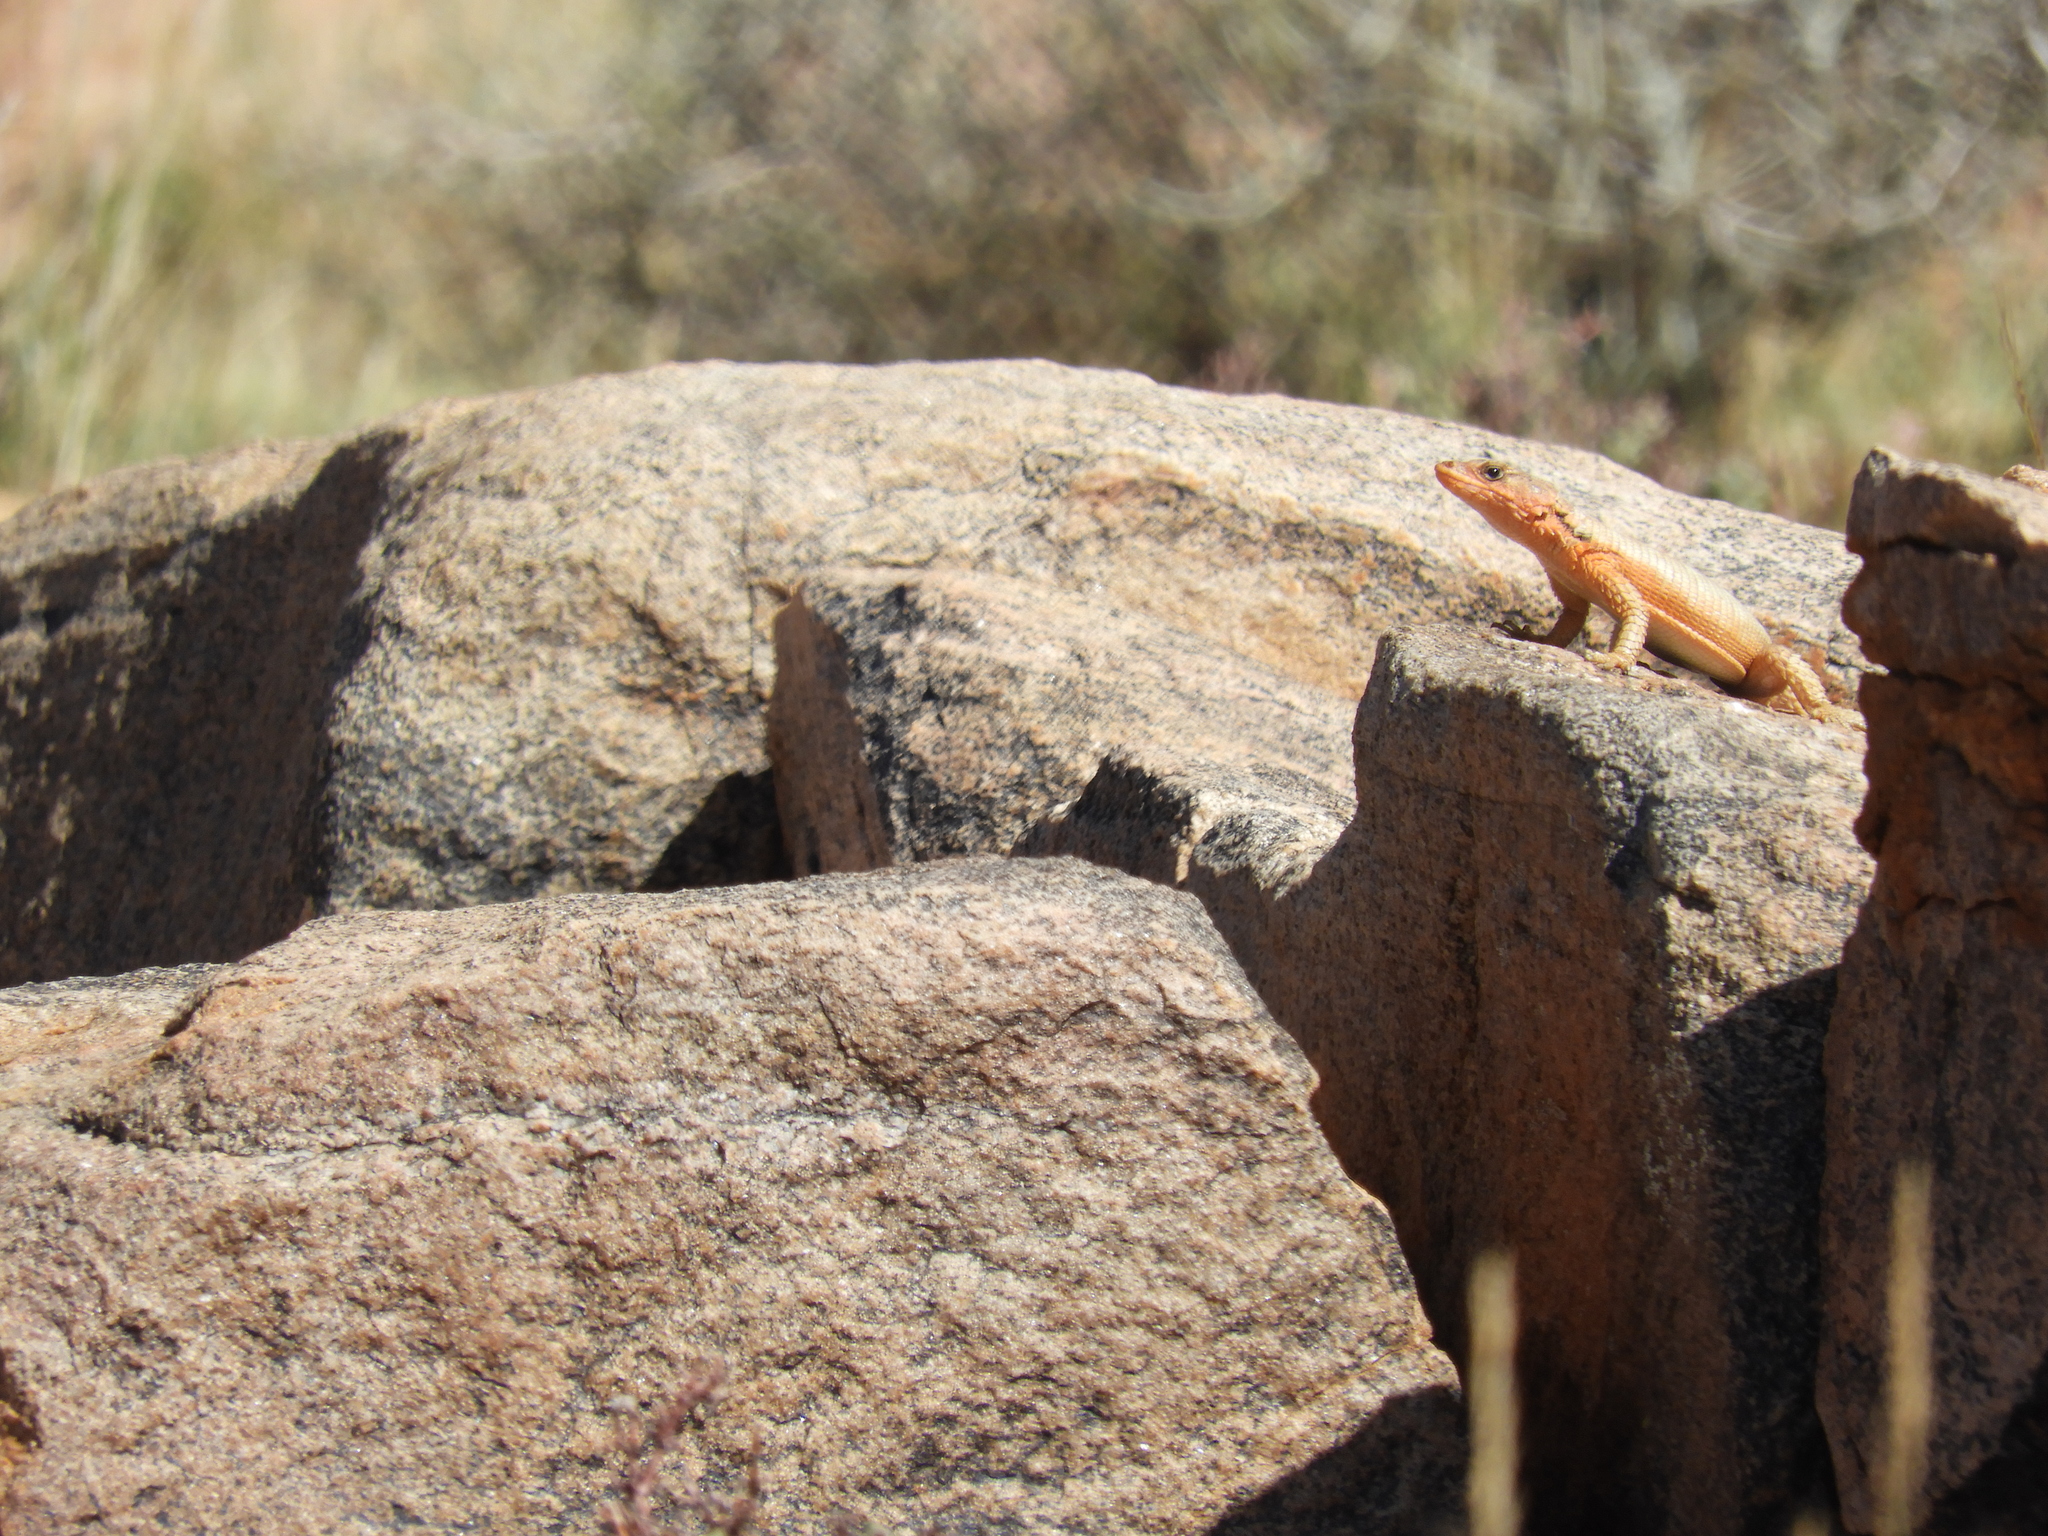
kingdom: Animalia
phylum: Chordata
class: Squamata
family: Cordylidae
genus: Karusasaurus
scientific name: Karusasaurus polyzonus
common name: Karoo girdled lizard
